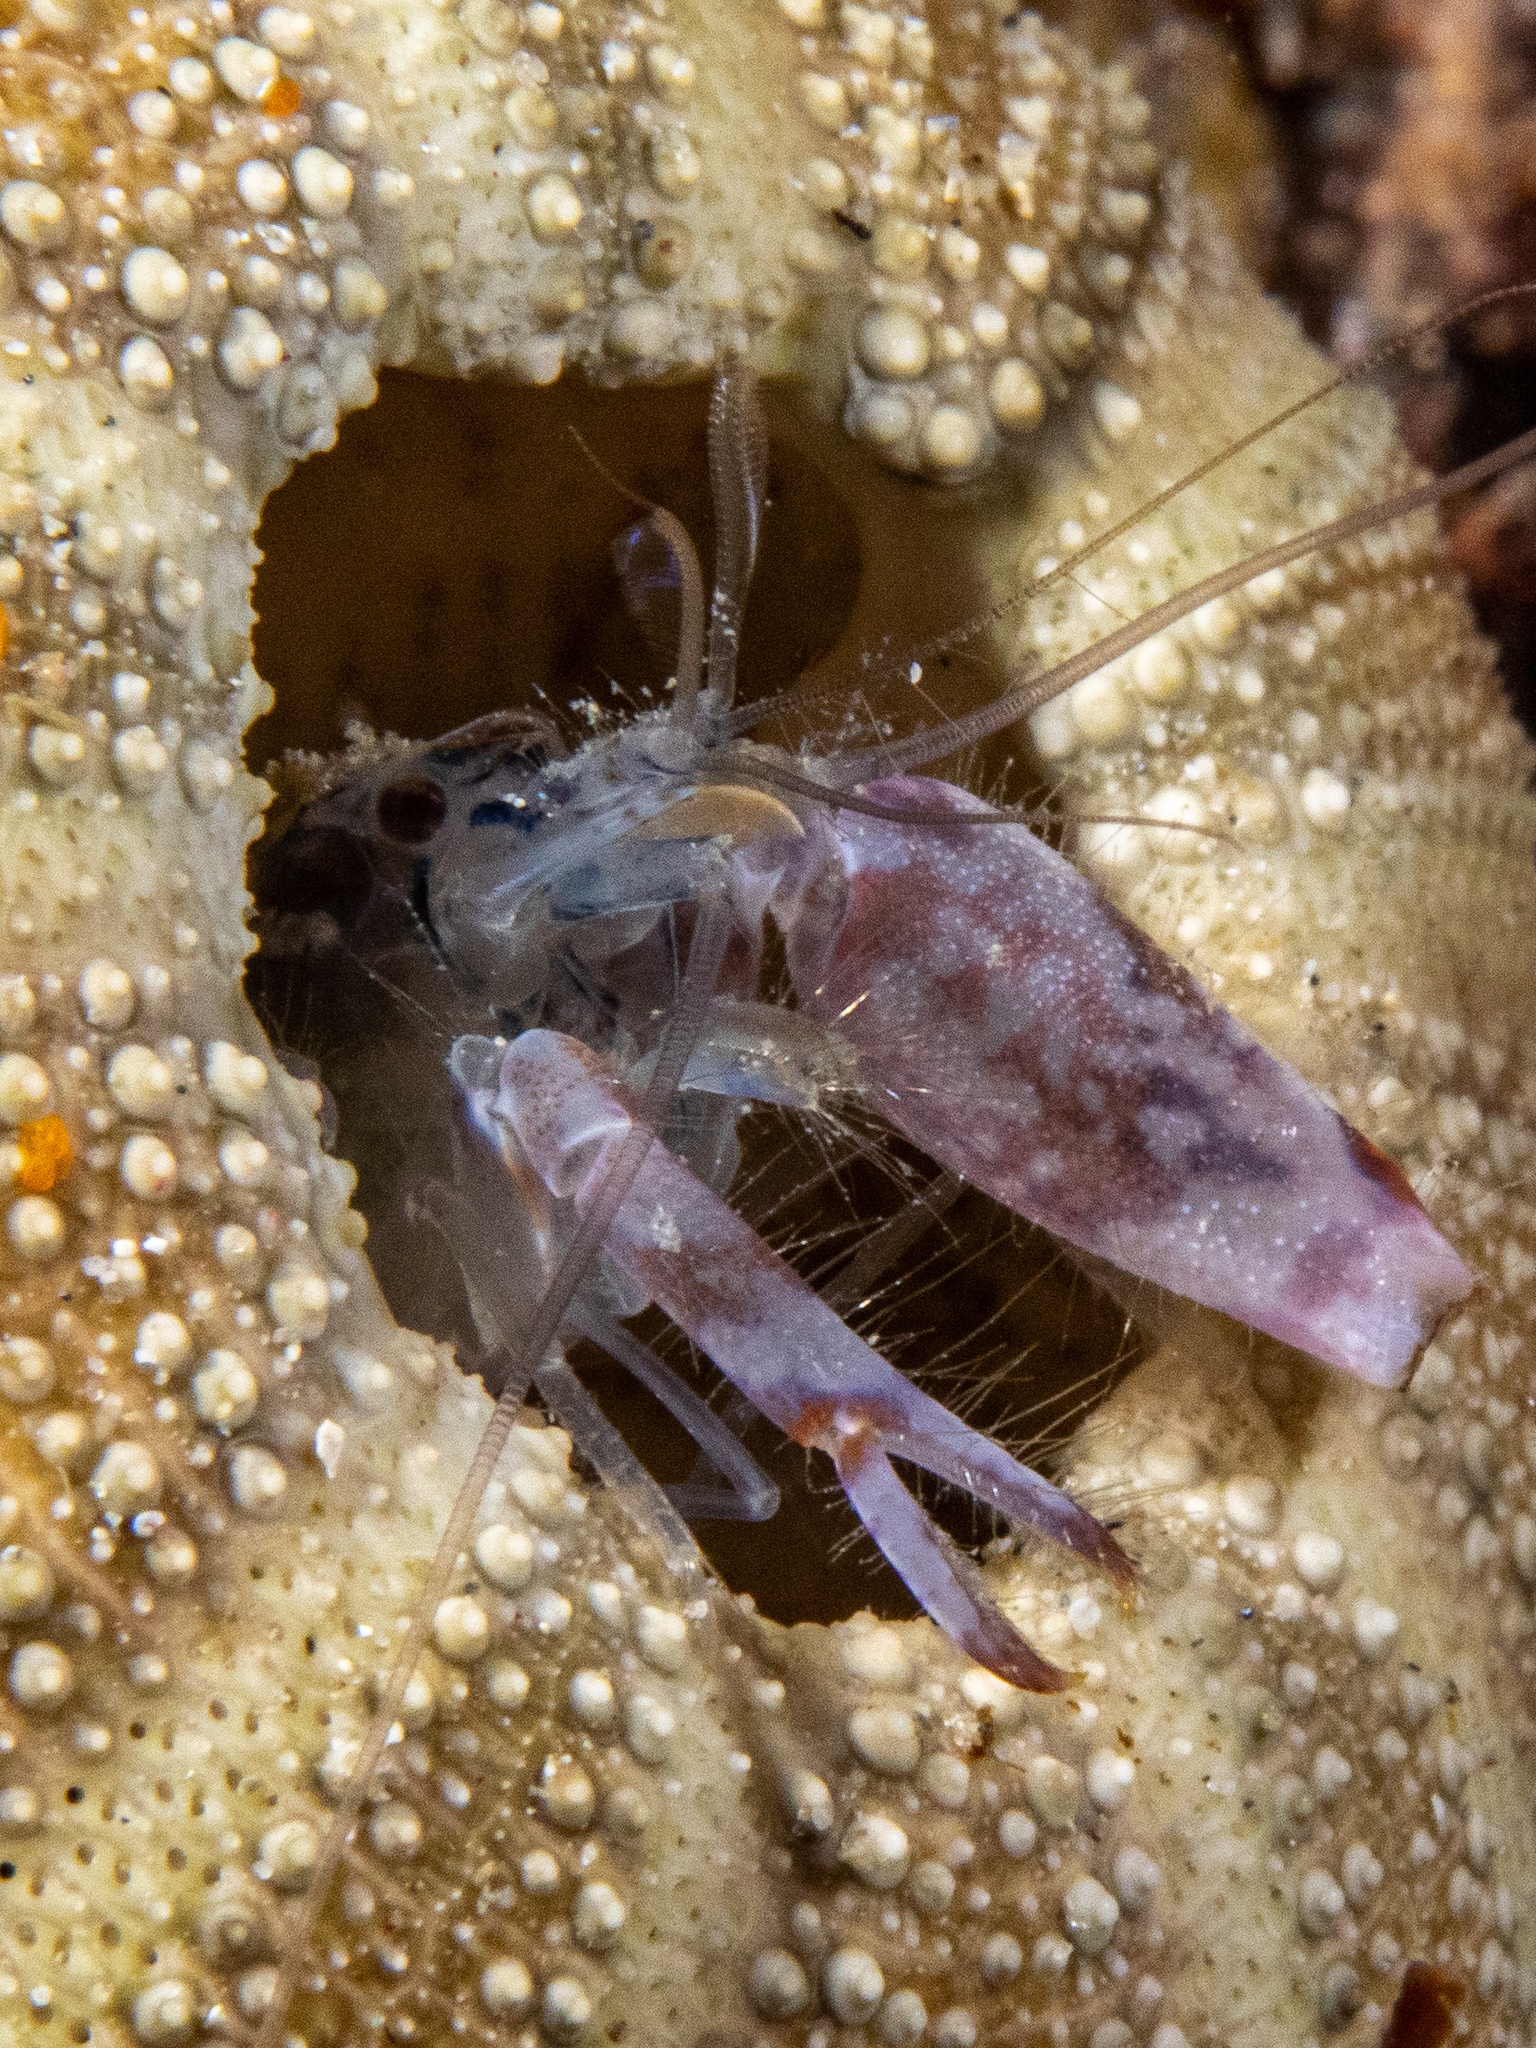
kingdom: Animalia
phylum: Arthropoda
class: Malacostraca
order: Decapoda
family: Alpheidae
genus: Alpheus
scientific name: Alpheus novaezealandiae
